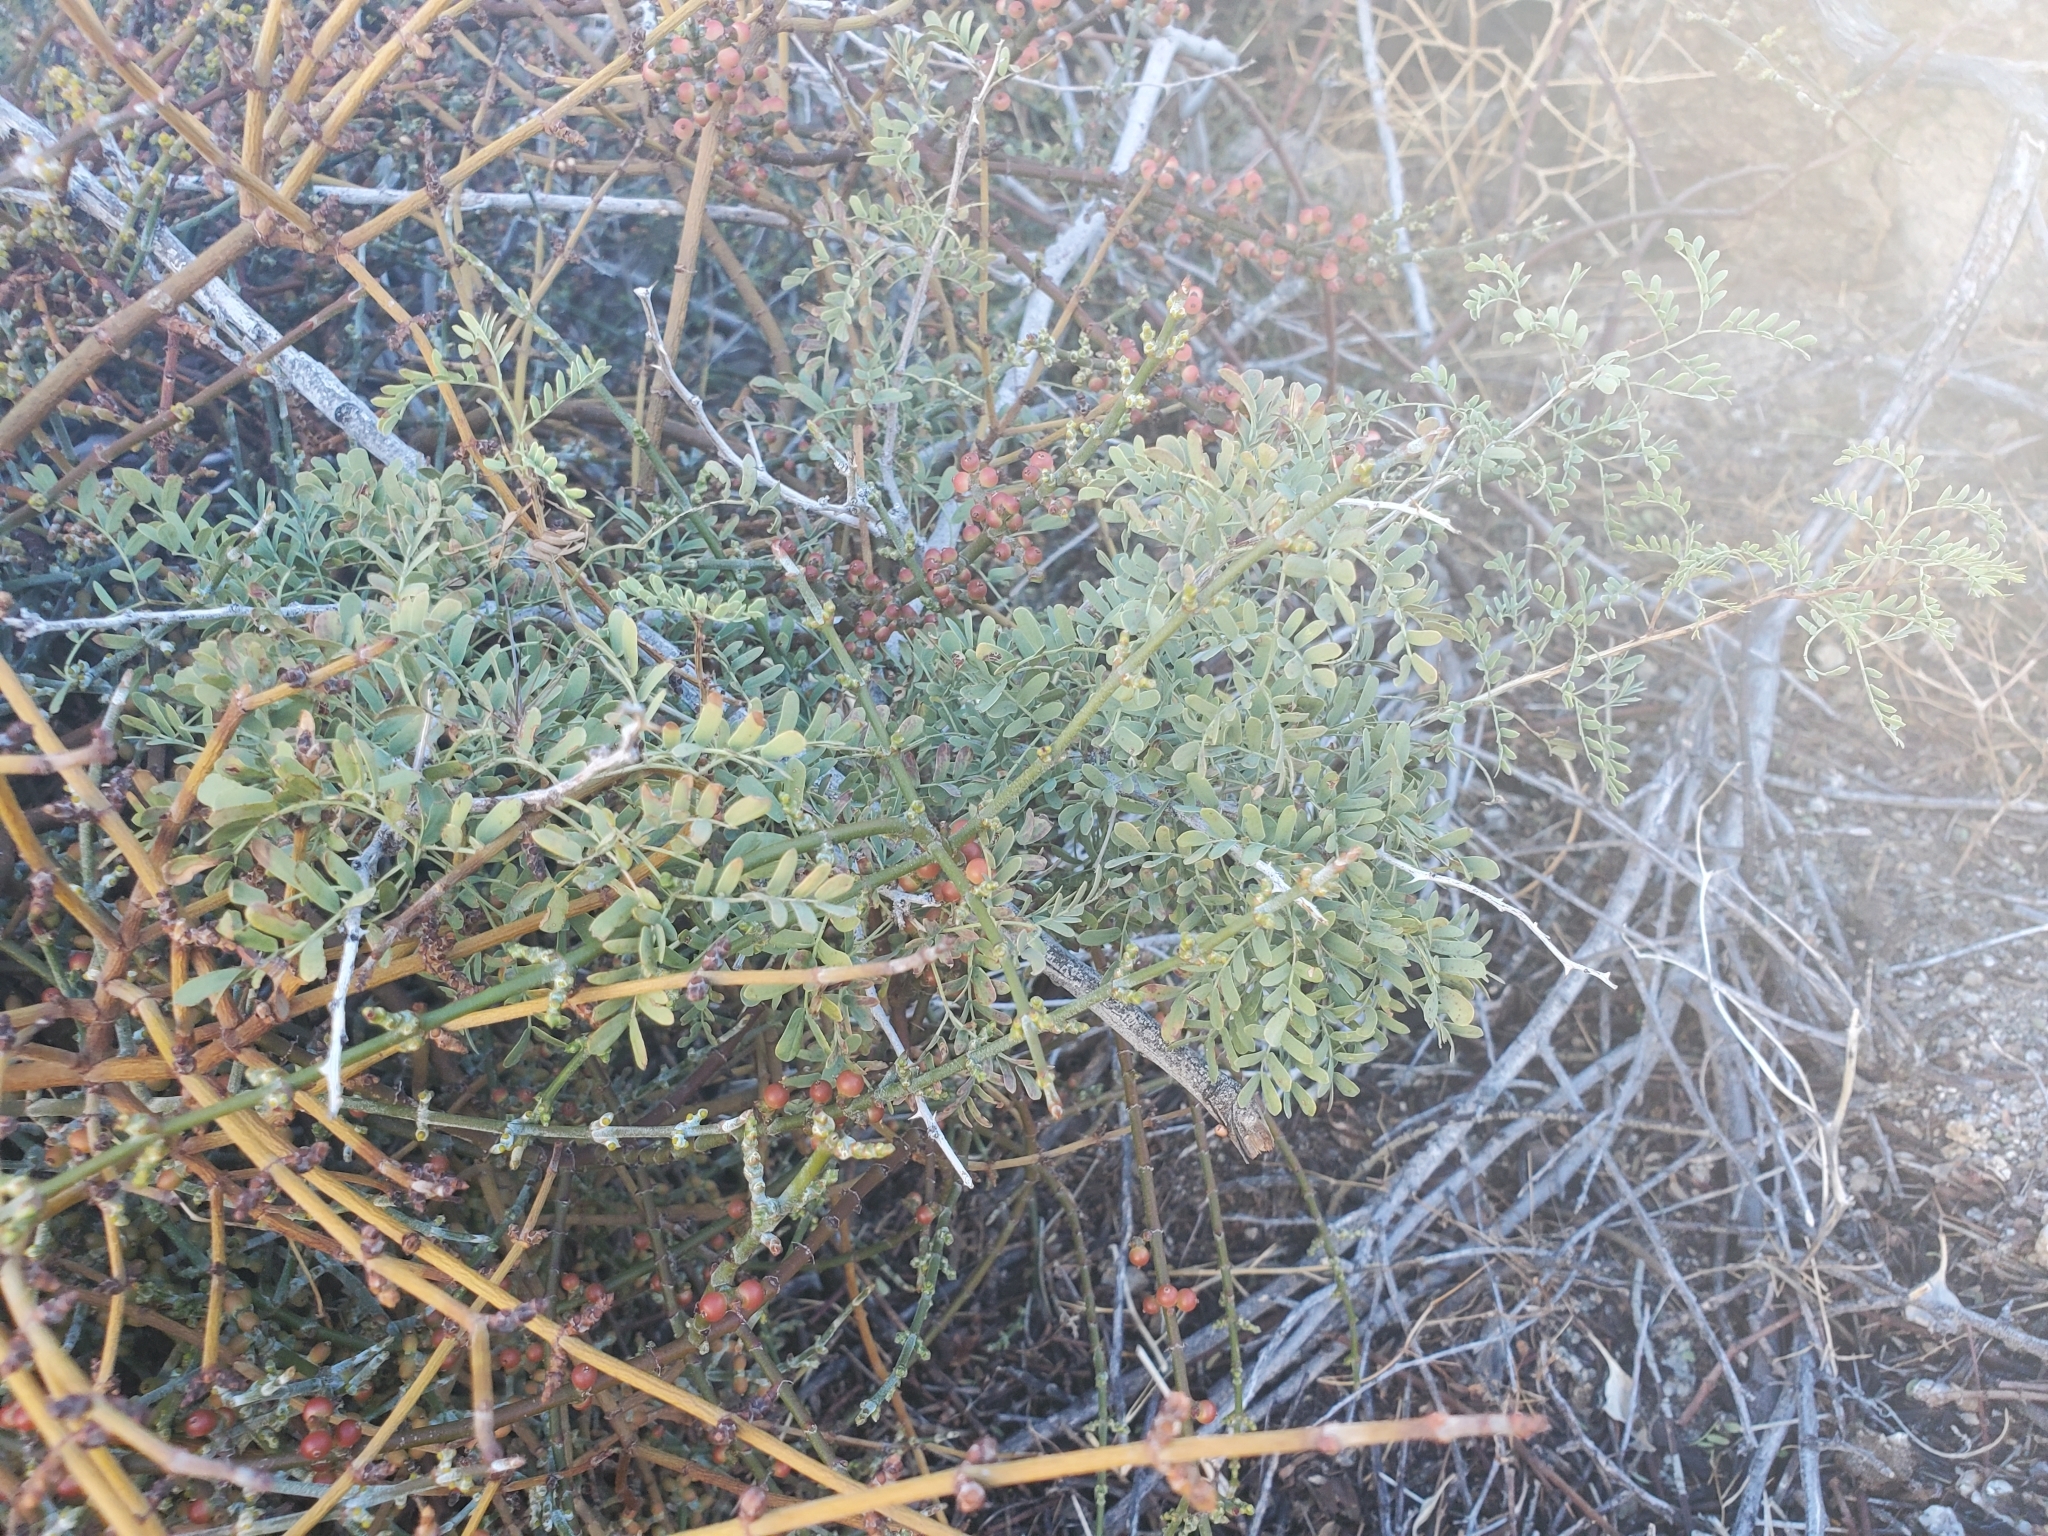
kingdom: Plantae
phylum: Tracheophyta
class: Magnoliopsida
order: Fabales
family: Fabaceae
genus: Senegalia
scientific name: Senegalia greggii
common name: Texas-mimosa
